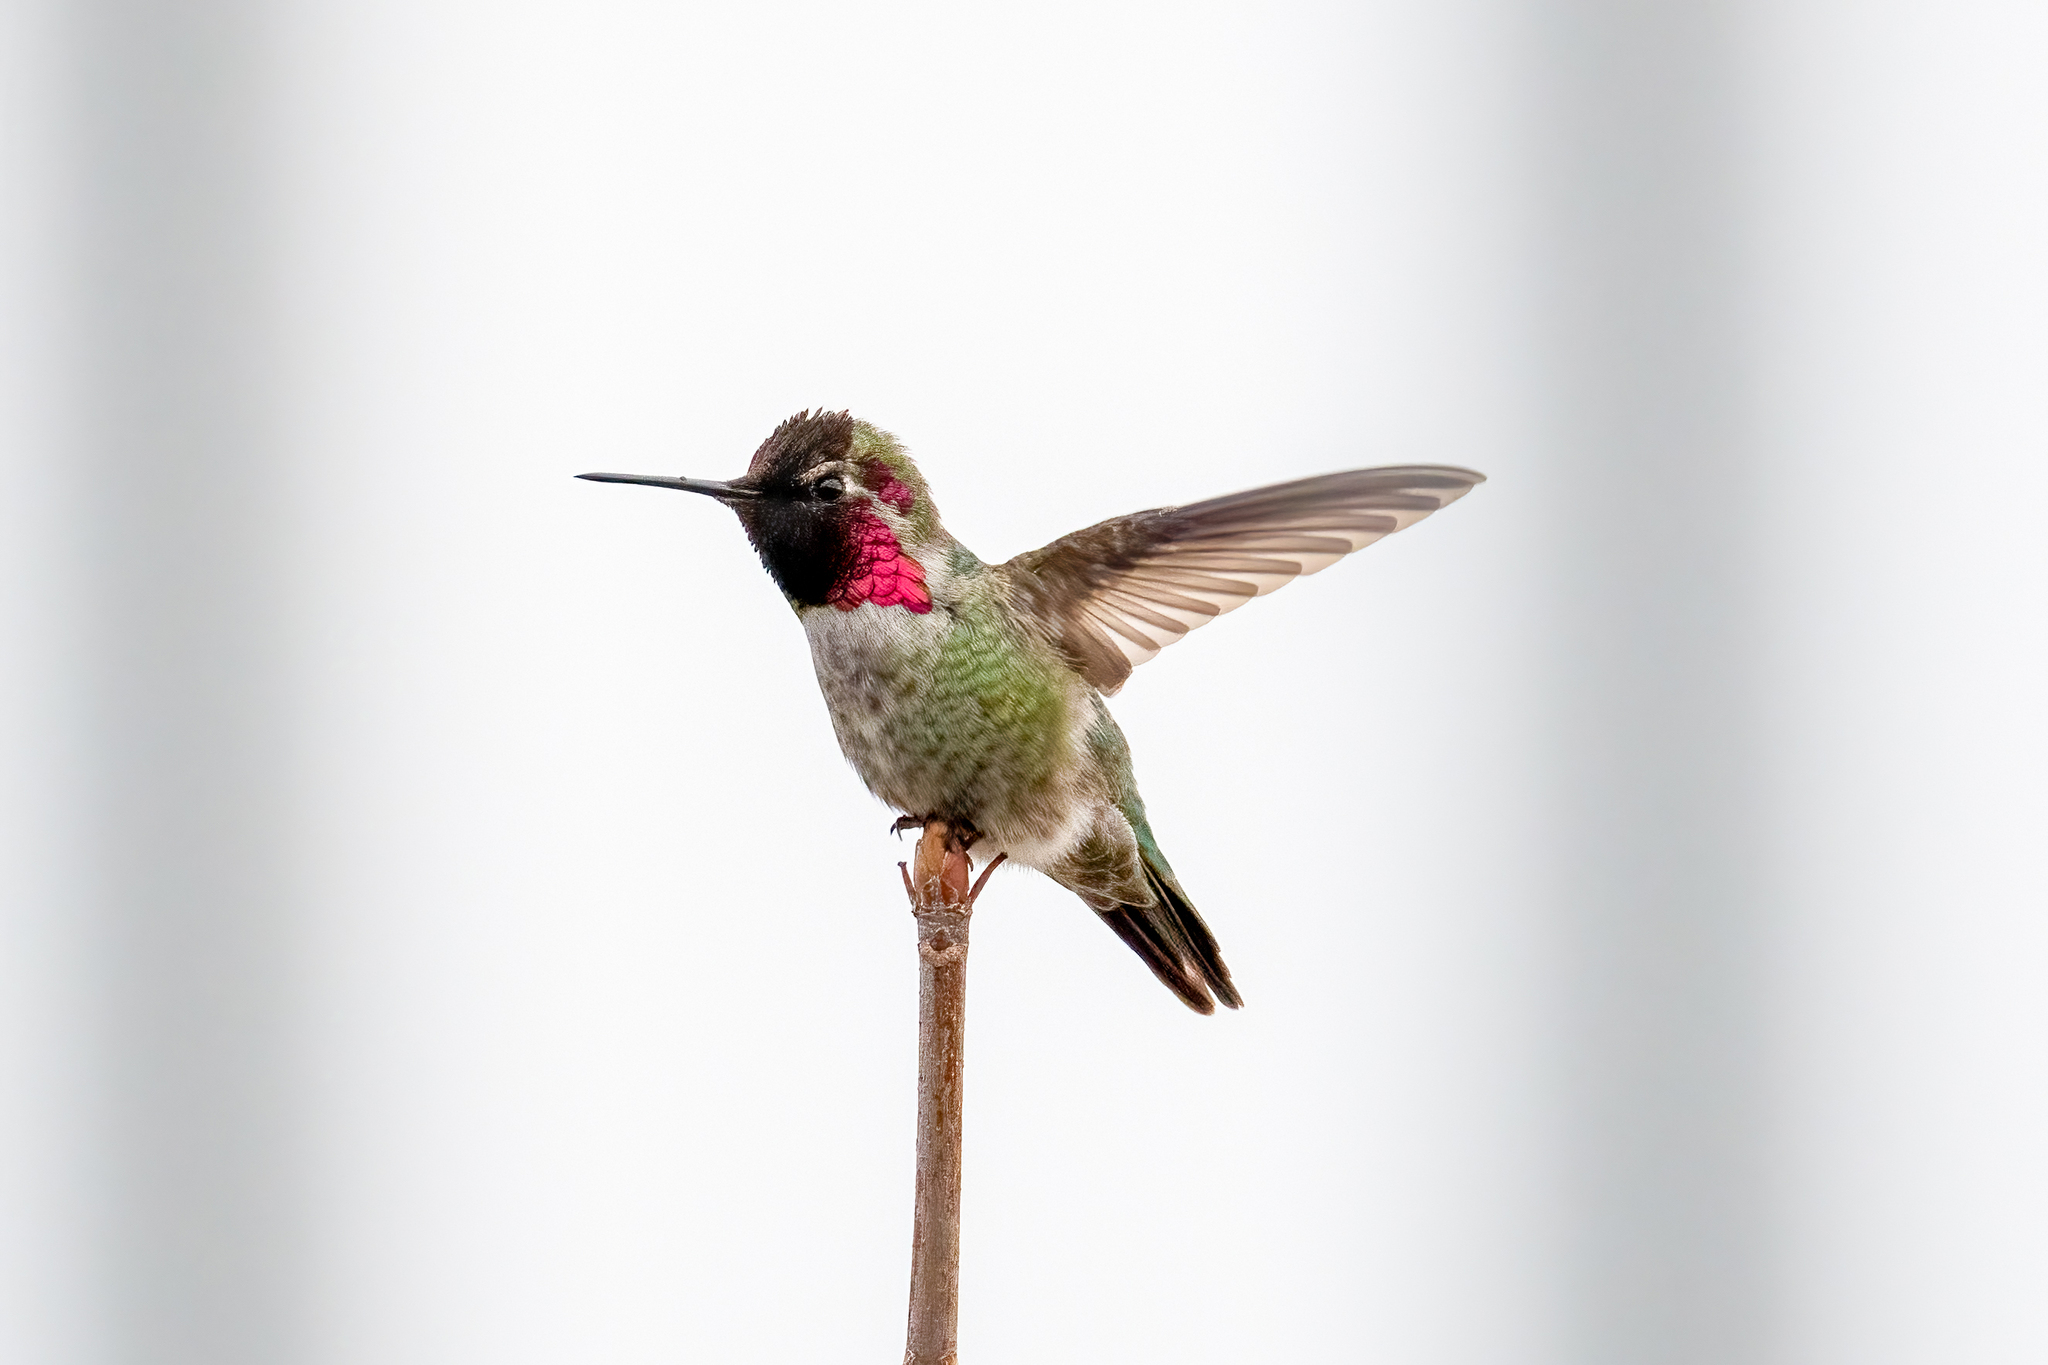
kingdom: Animalia
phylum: Chordata
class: Aves
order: Apodiformes
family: Trochilidae
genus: Calypte
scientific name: Calypte anna
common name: Anna's hummingbird
